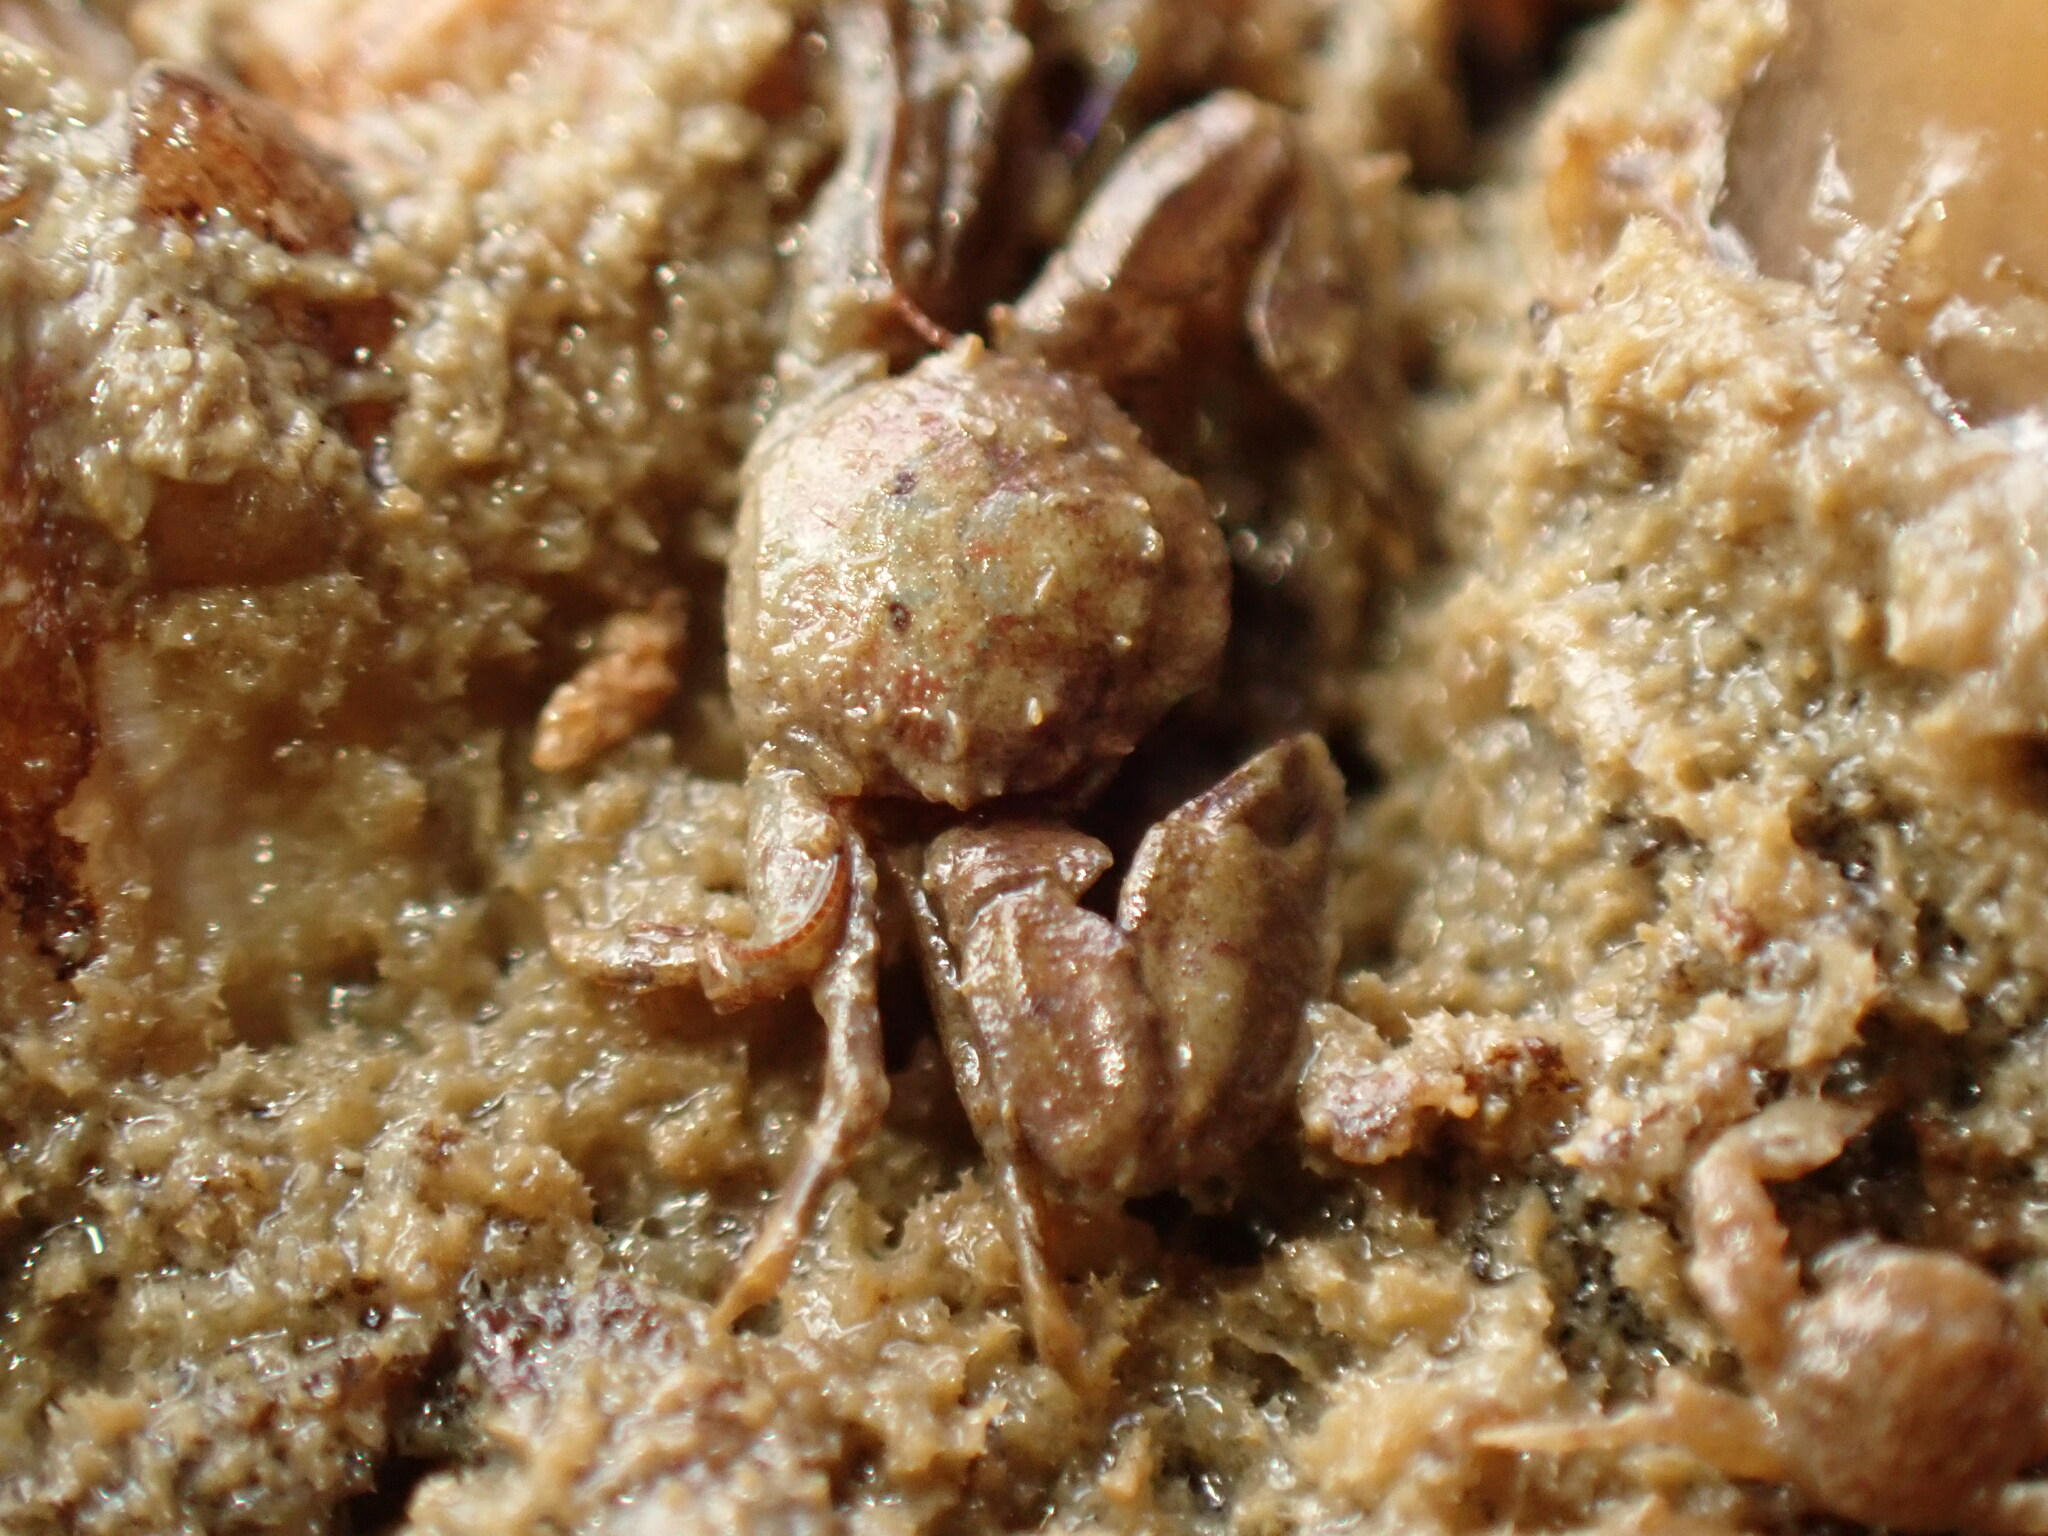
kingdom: Animalia
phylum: Arthropoda
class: Malacostraca
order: Decapoda
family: Porcellanidae
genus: Petrolisthes
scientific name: Petrolisthes novaezelandiae
